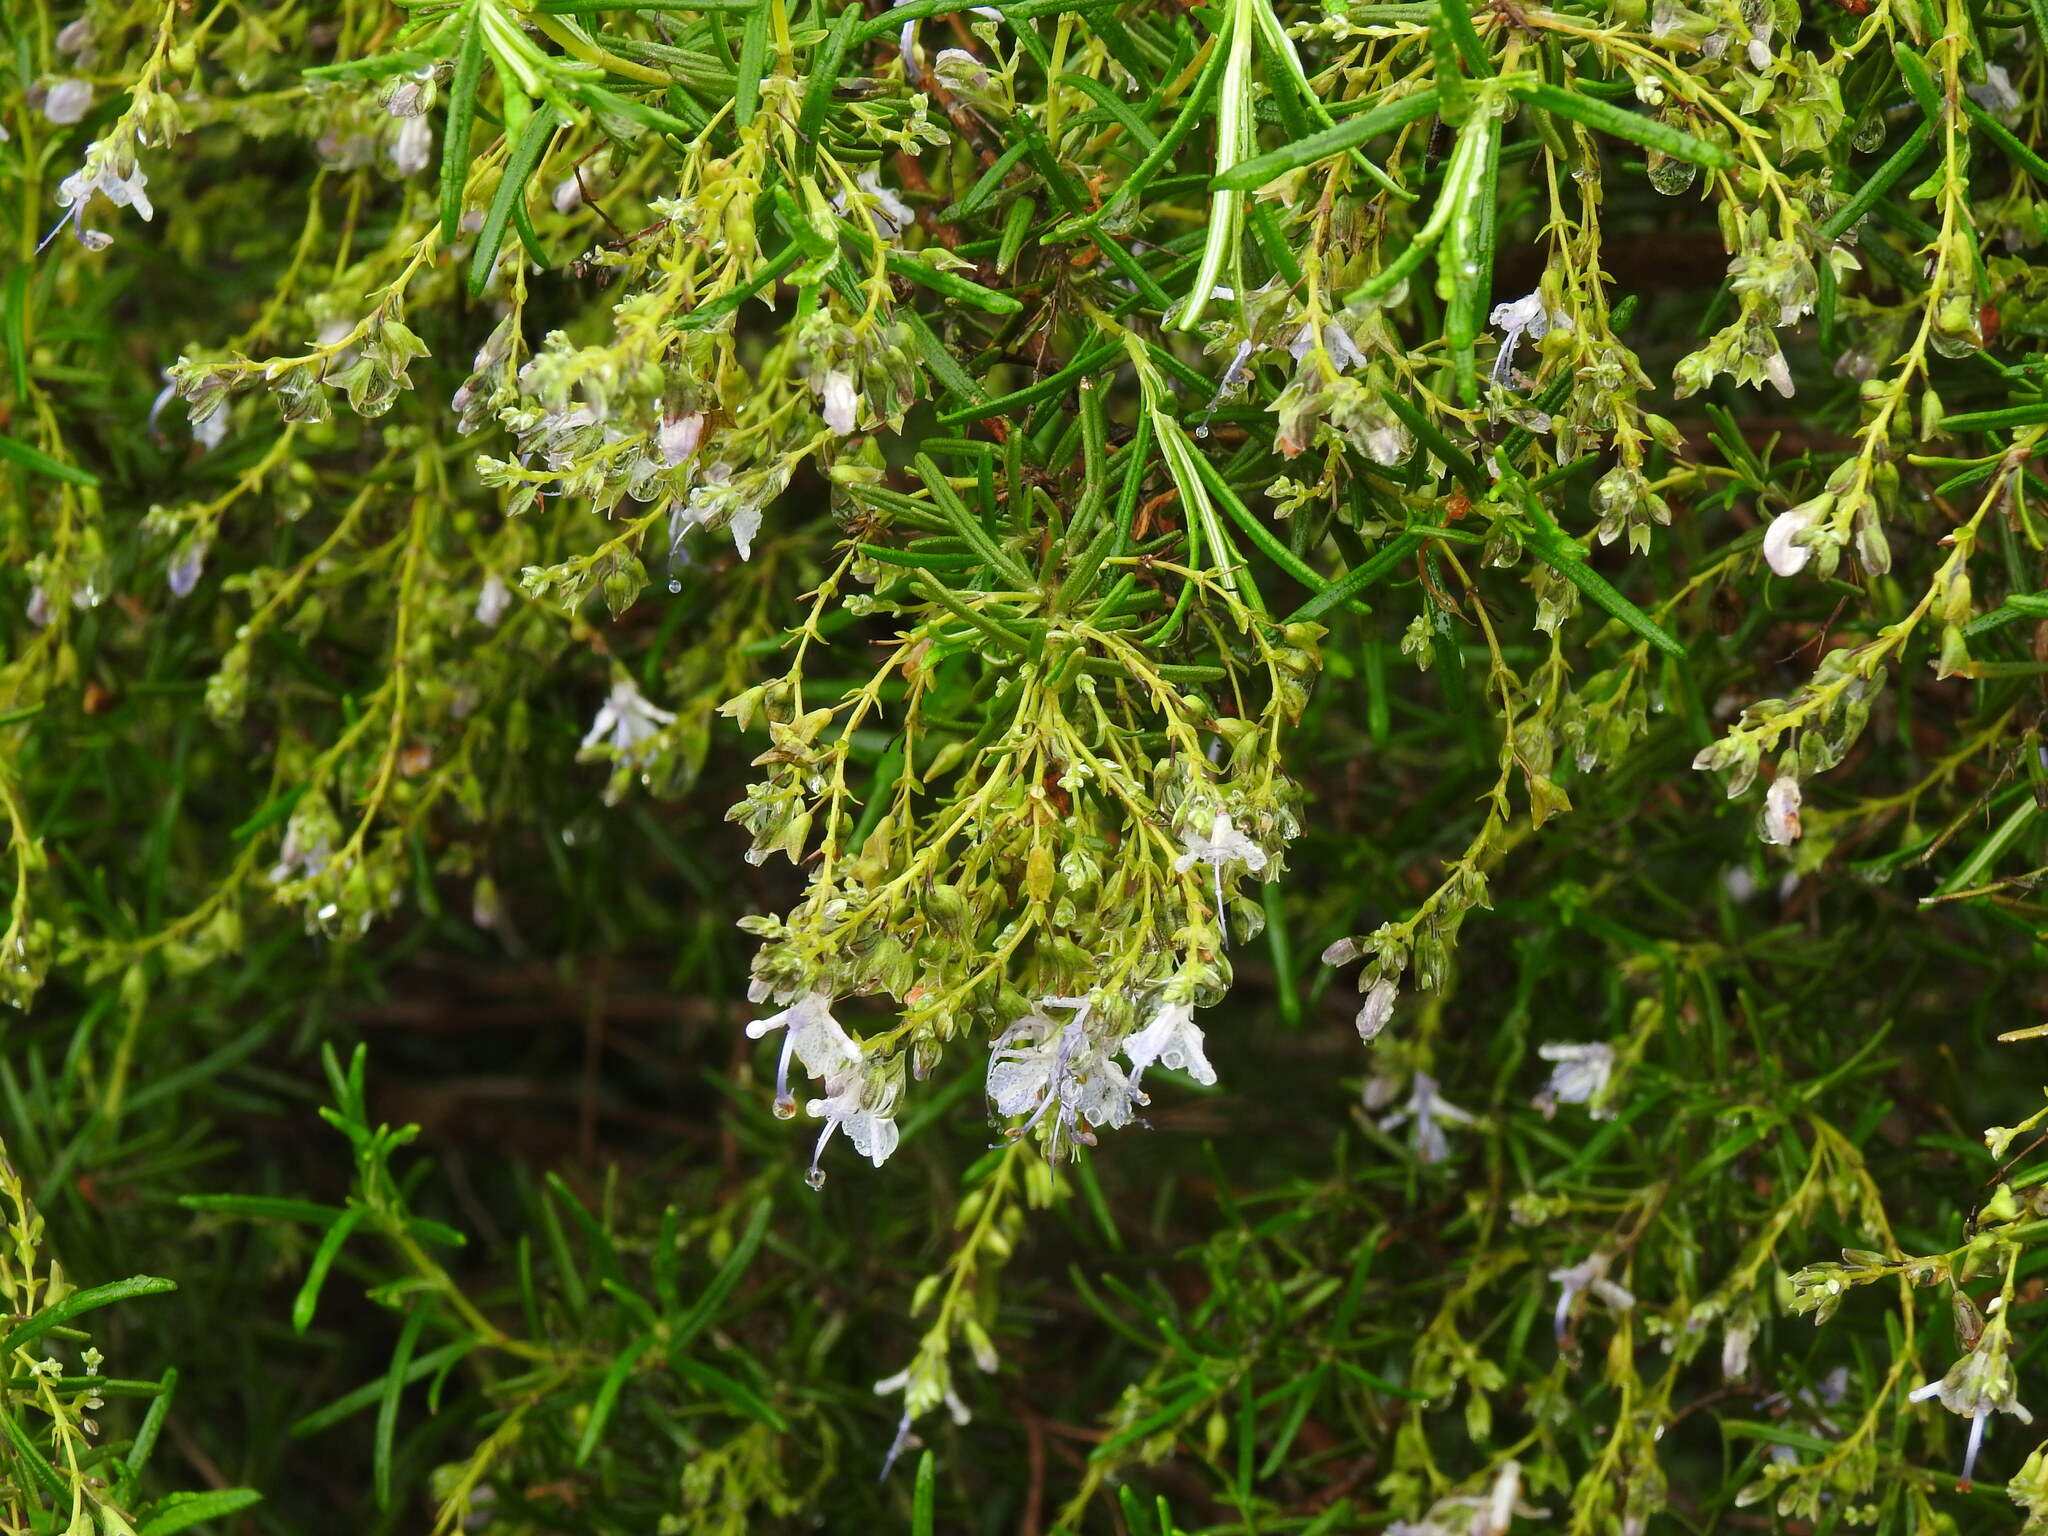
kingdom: Plantae
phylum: Tracheophyta
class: Magnoliopsida
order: Lamiales
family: Lamiaceae
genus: Salvia
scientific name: Salvia rosmarinus
